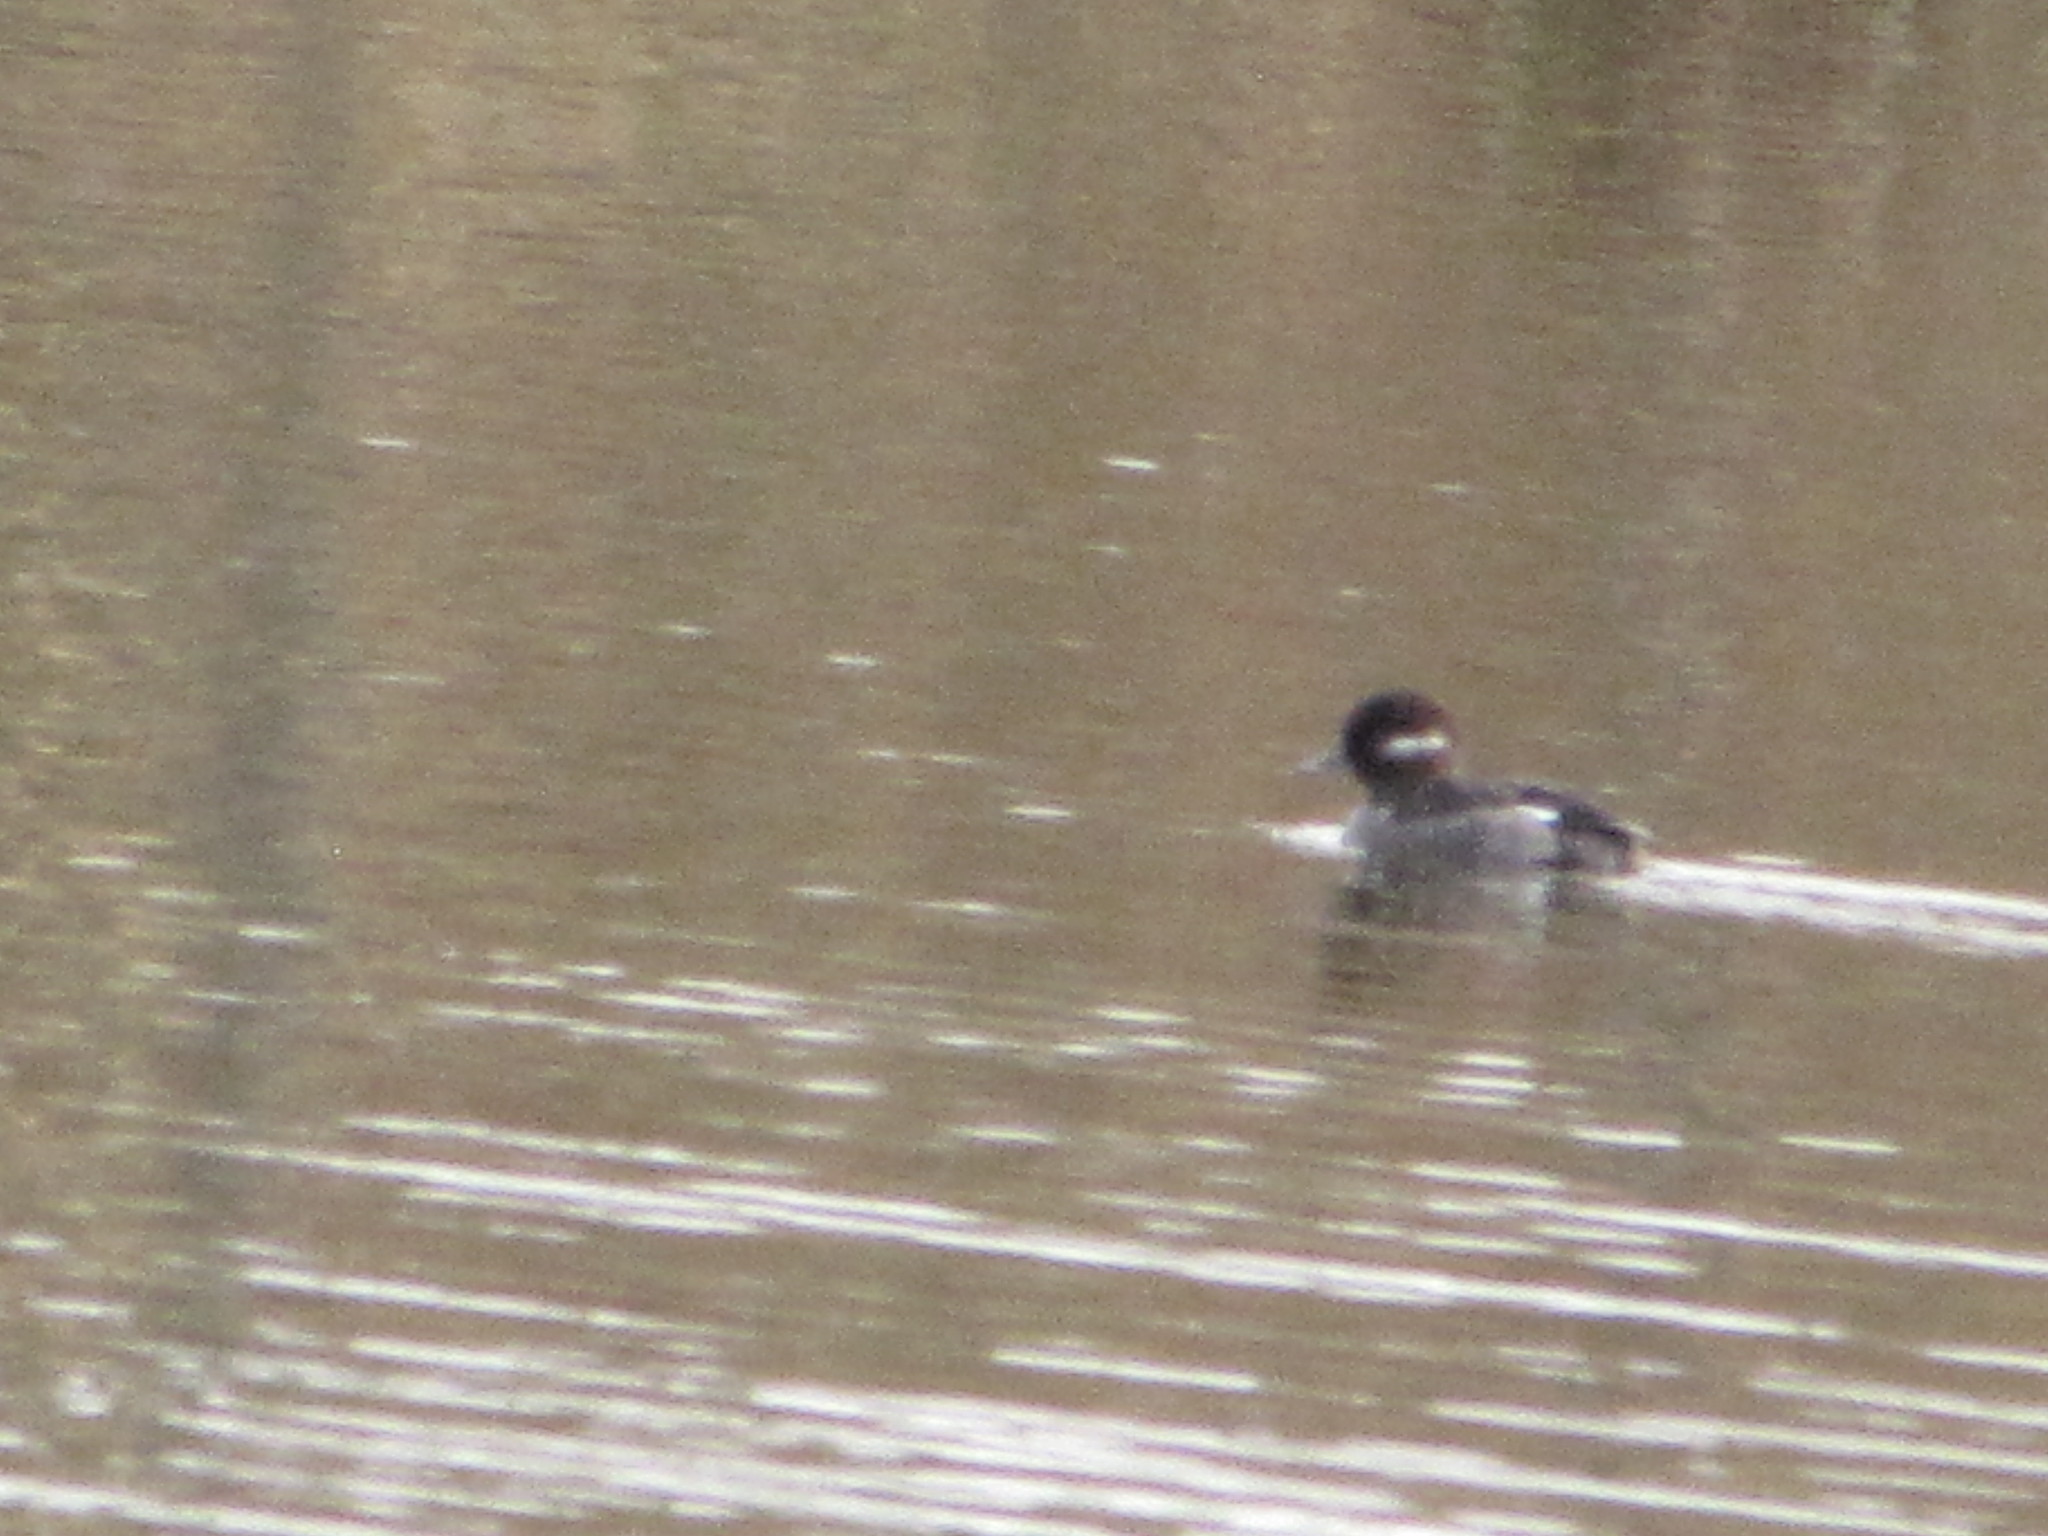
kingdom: Animalia
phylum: Chordata
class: Aves
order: Anseriformes
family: Anatidae
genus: Bucephala
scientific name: Bucephala albeola
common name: Bufflehead
